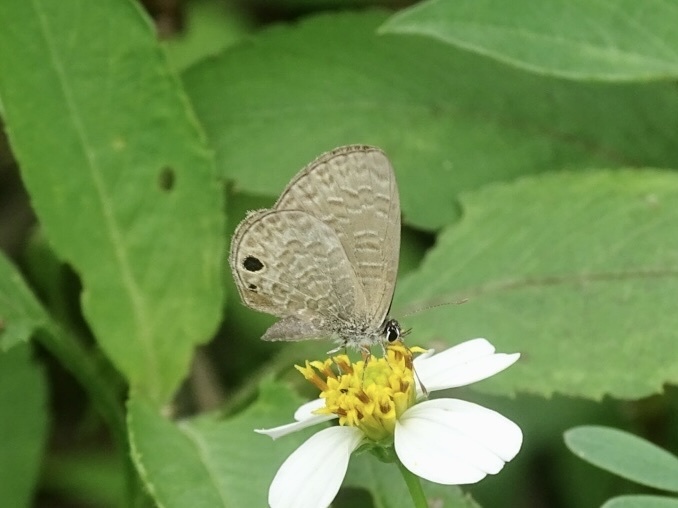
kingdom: Animalia
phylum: Arthropoda
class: Insecta
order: Lepidoptera
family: Lycaenidae
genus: Prosotas
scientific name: Prosotas dubiosa
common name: Tailless lineblue
